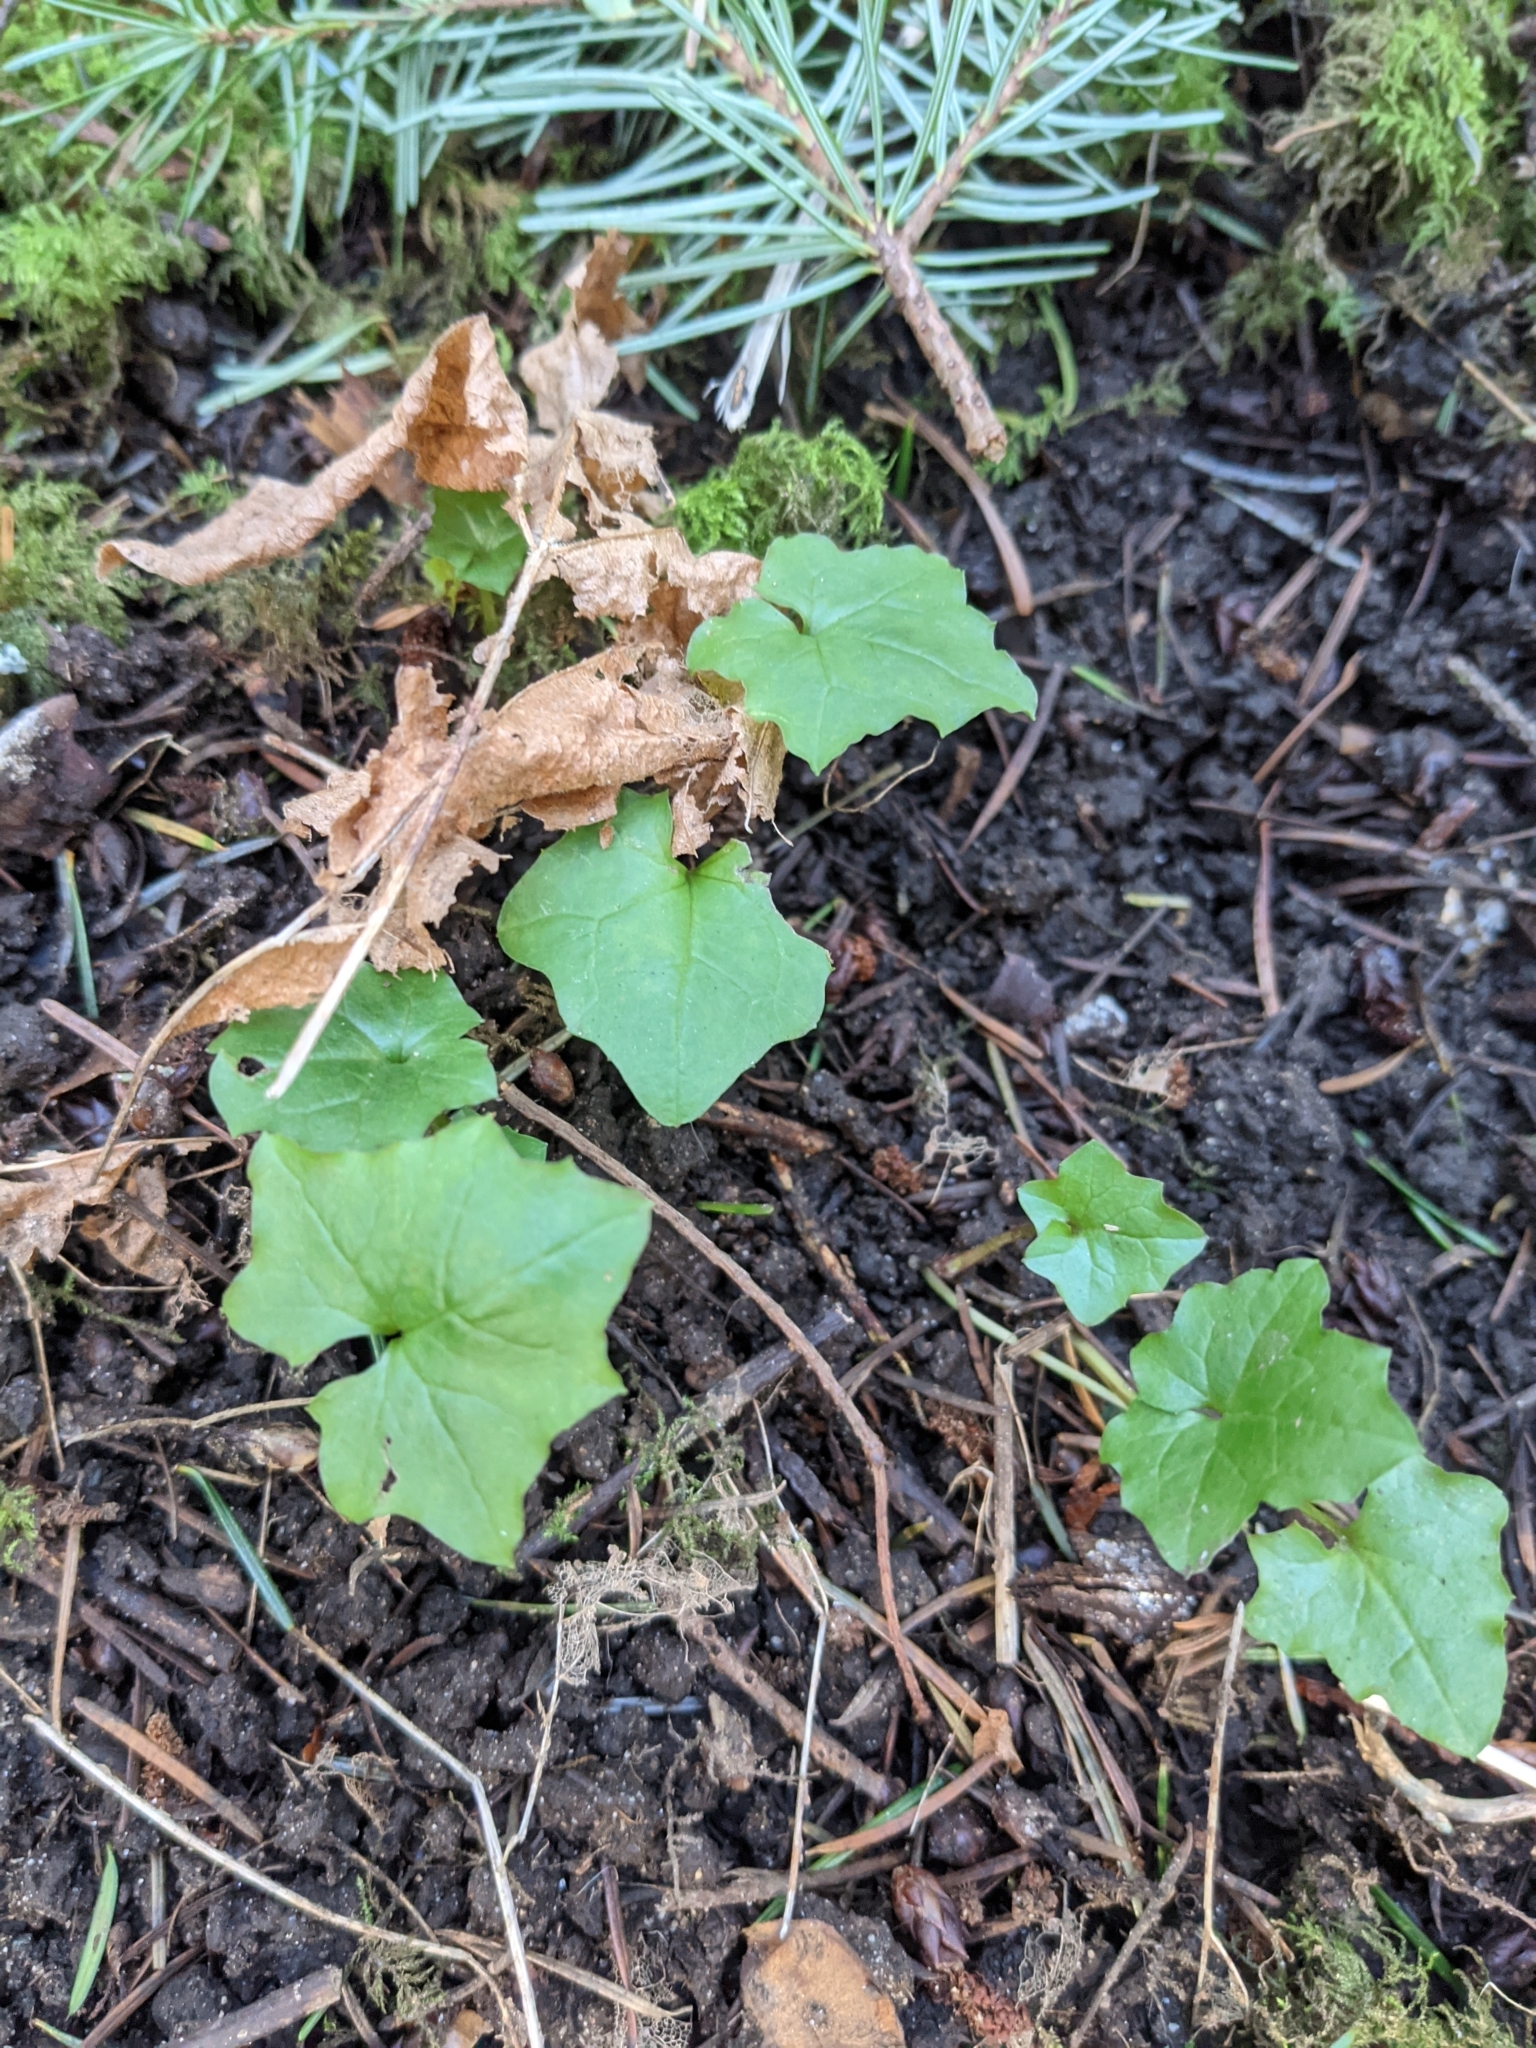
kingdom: Plantae
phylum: Tracheophyta
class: Magnoliopsida
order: Asterales
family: Asteraceae
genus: Mycelis
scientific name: Mycelis muralis
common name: Wall lettuce
